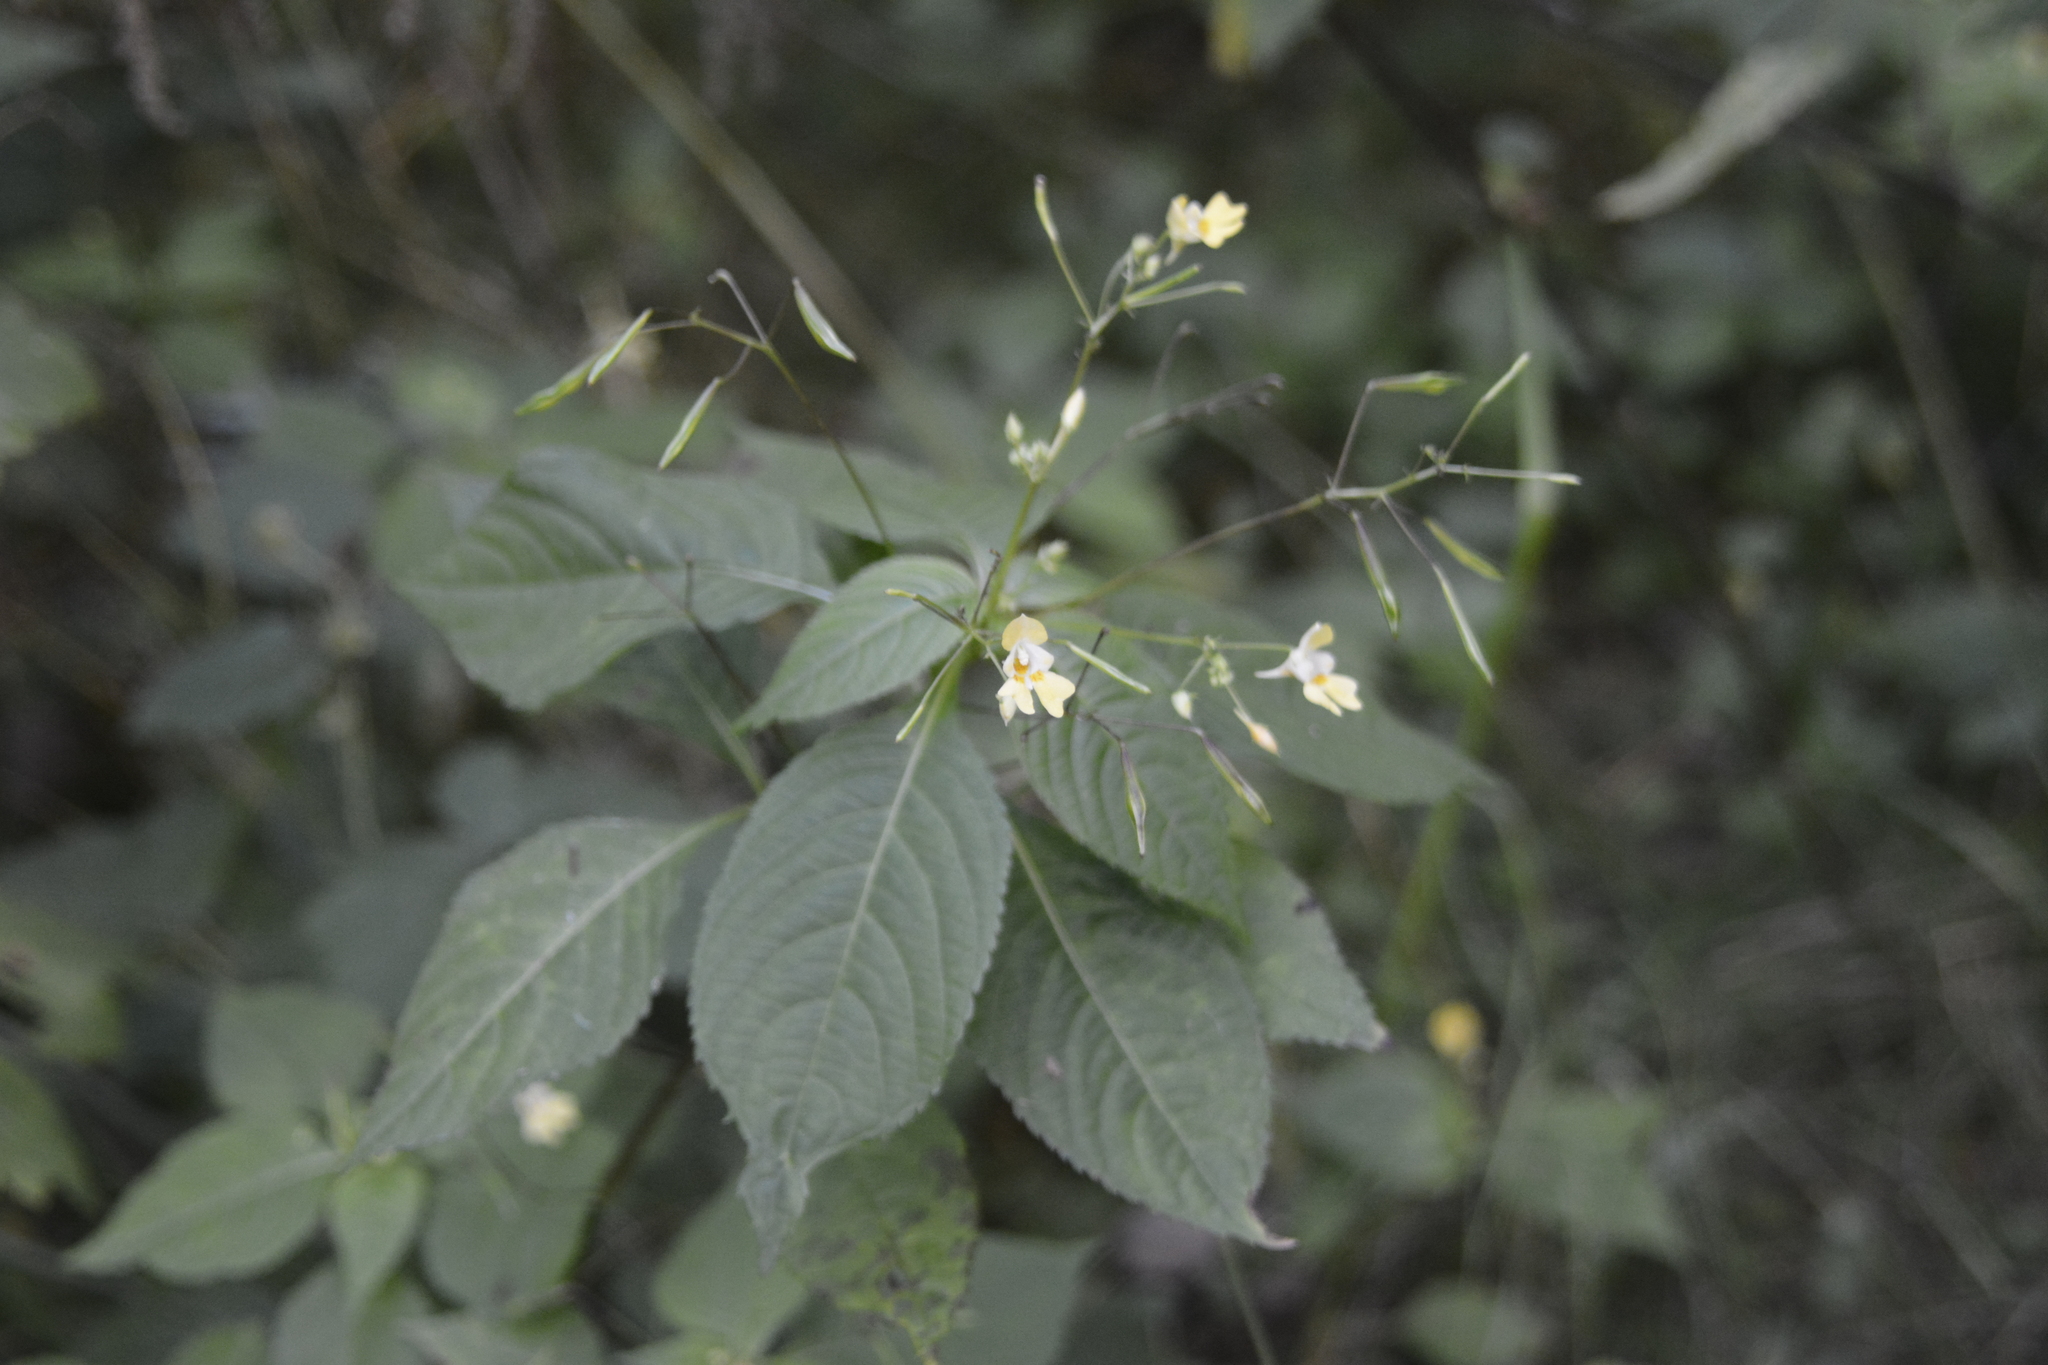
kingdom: Plantae
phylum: Tracheophyta
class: Magnoliopsida
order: Ericales
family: Balsaminaceae
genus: Impatiens
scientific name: Impatiens parviflora
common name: Small balsam
